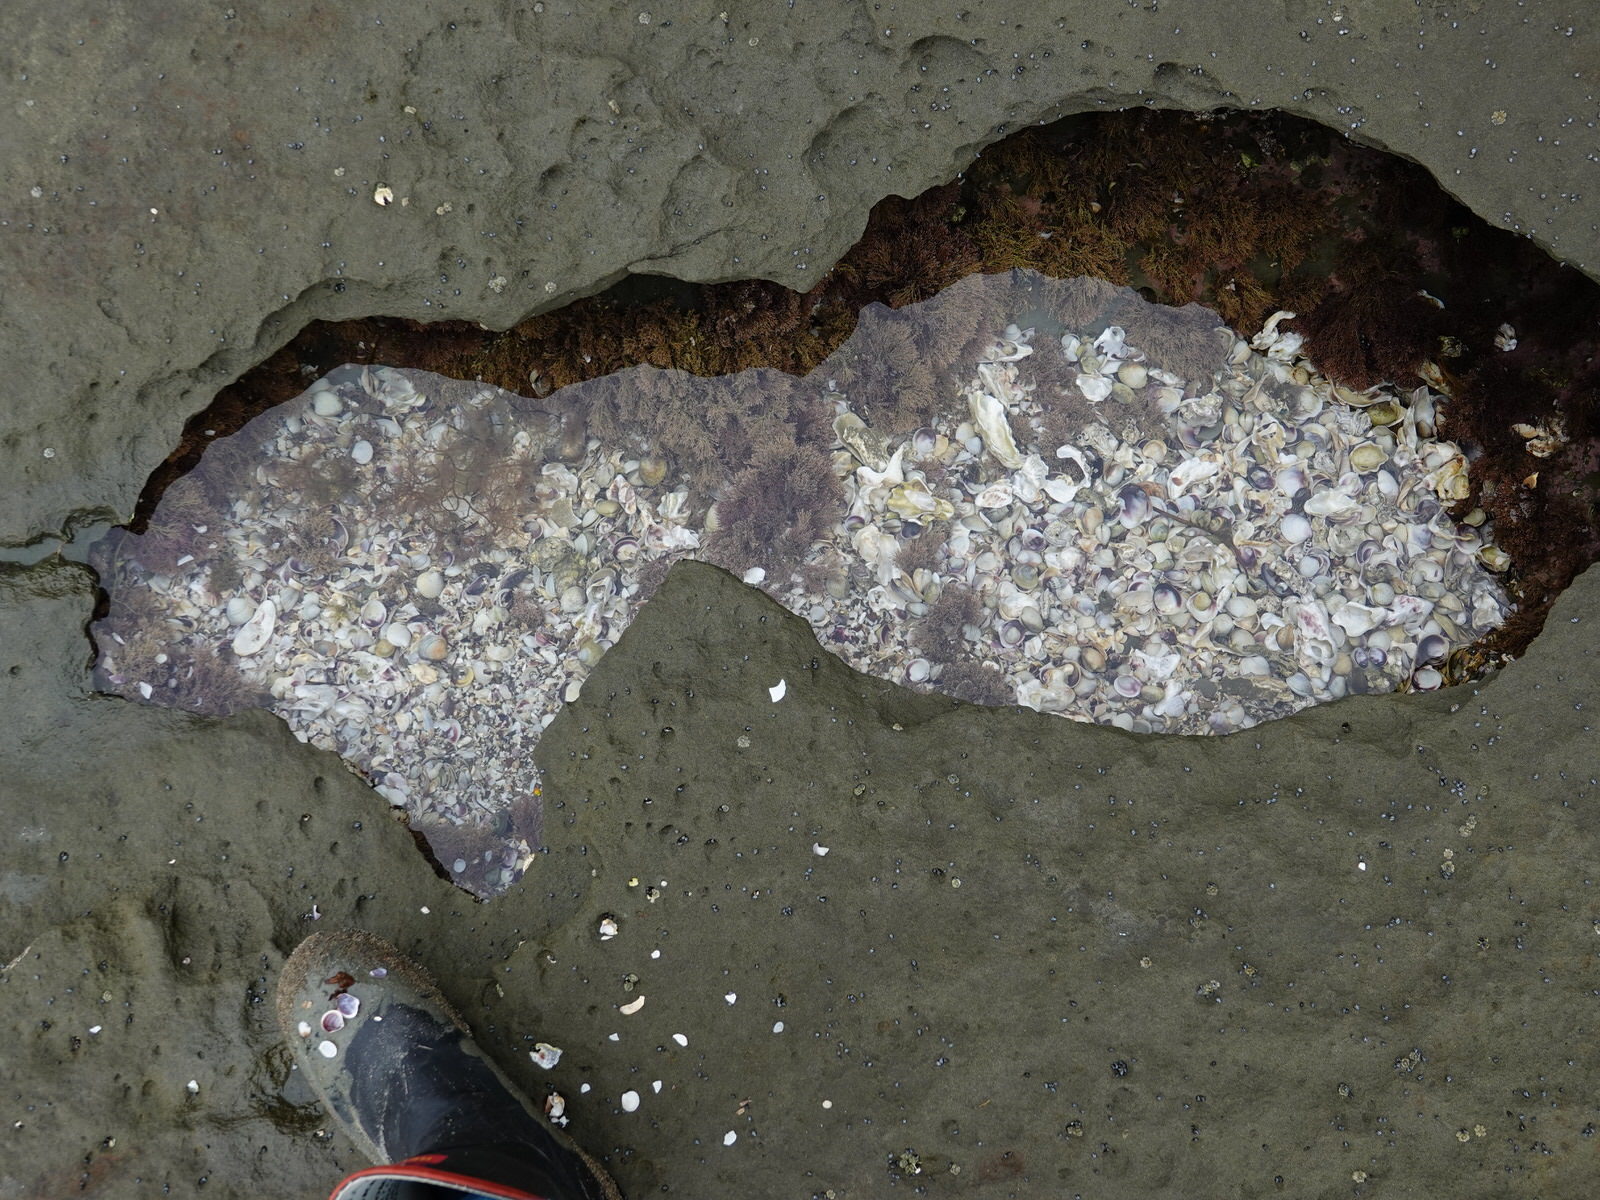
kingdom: Animalia
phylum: Mollusca
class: Polyplacophora
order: Chitonida
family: Acanthochitonidae
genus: Acanthochitona
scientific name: Acanthochitona zelandica
